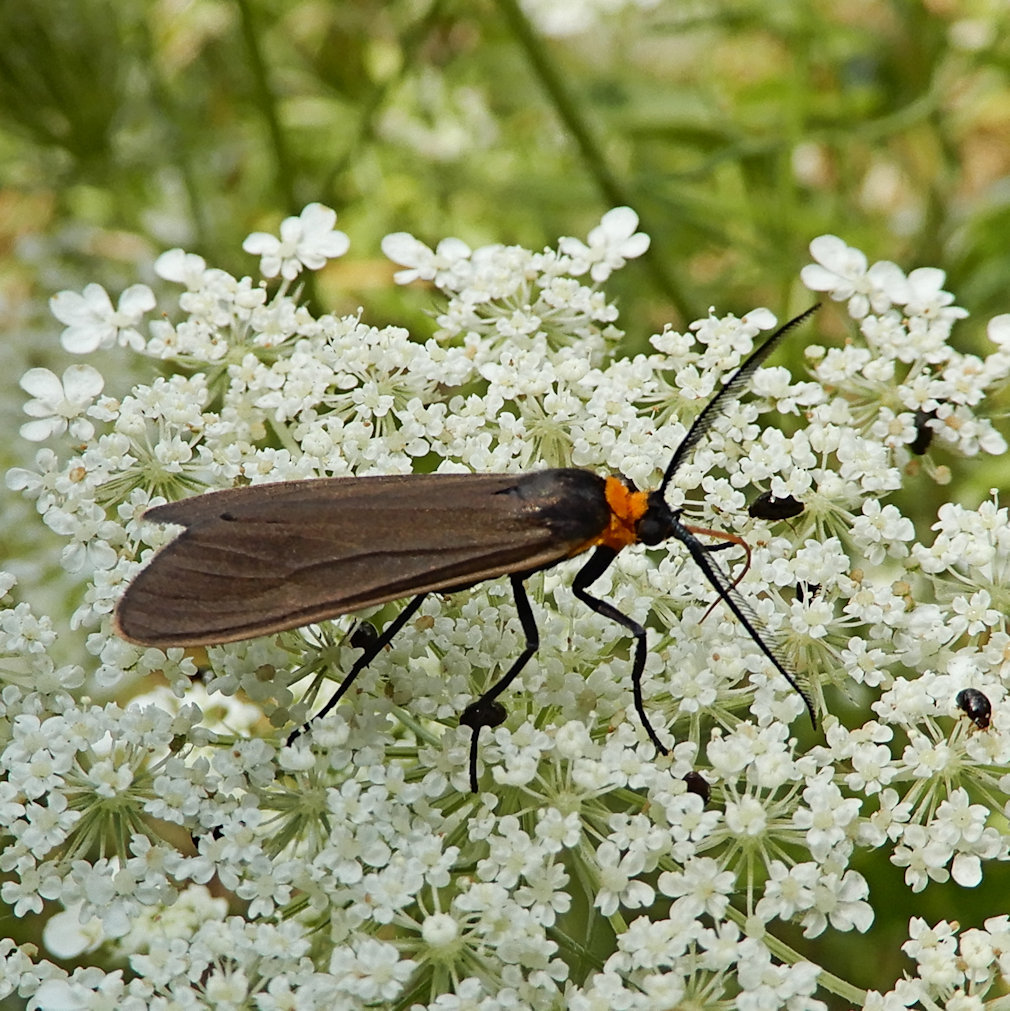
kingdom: Animalia
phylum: Arthropoda
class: Insecta
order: Lepidoptera
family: Erebidae
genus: Cisseps
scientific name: Cisseps fulvicollis
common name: Yellow-collared scape moth
